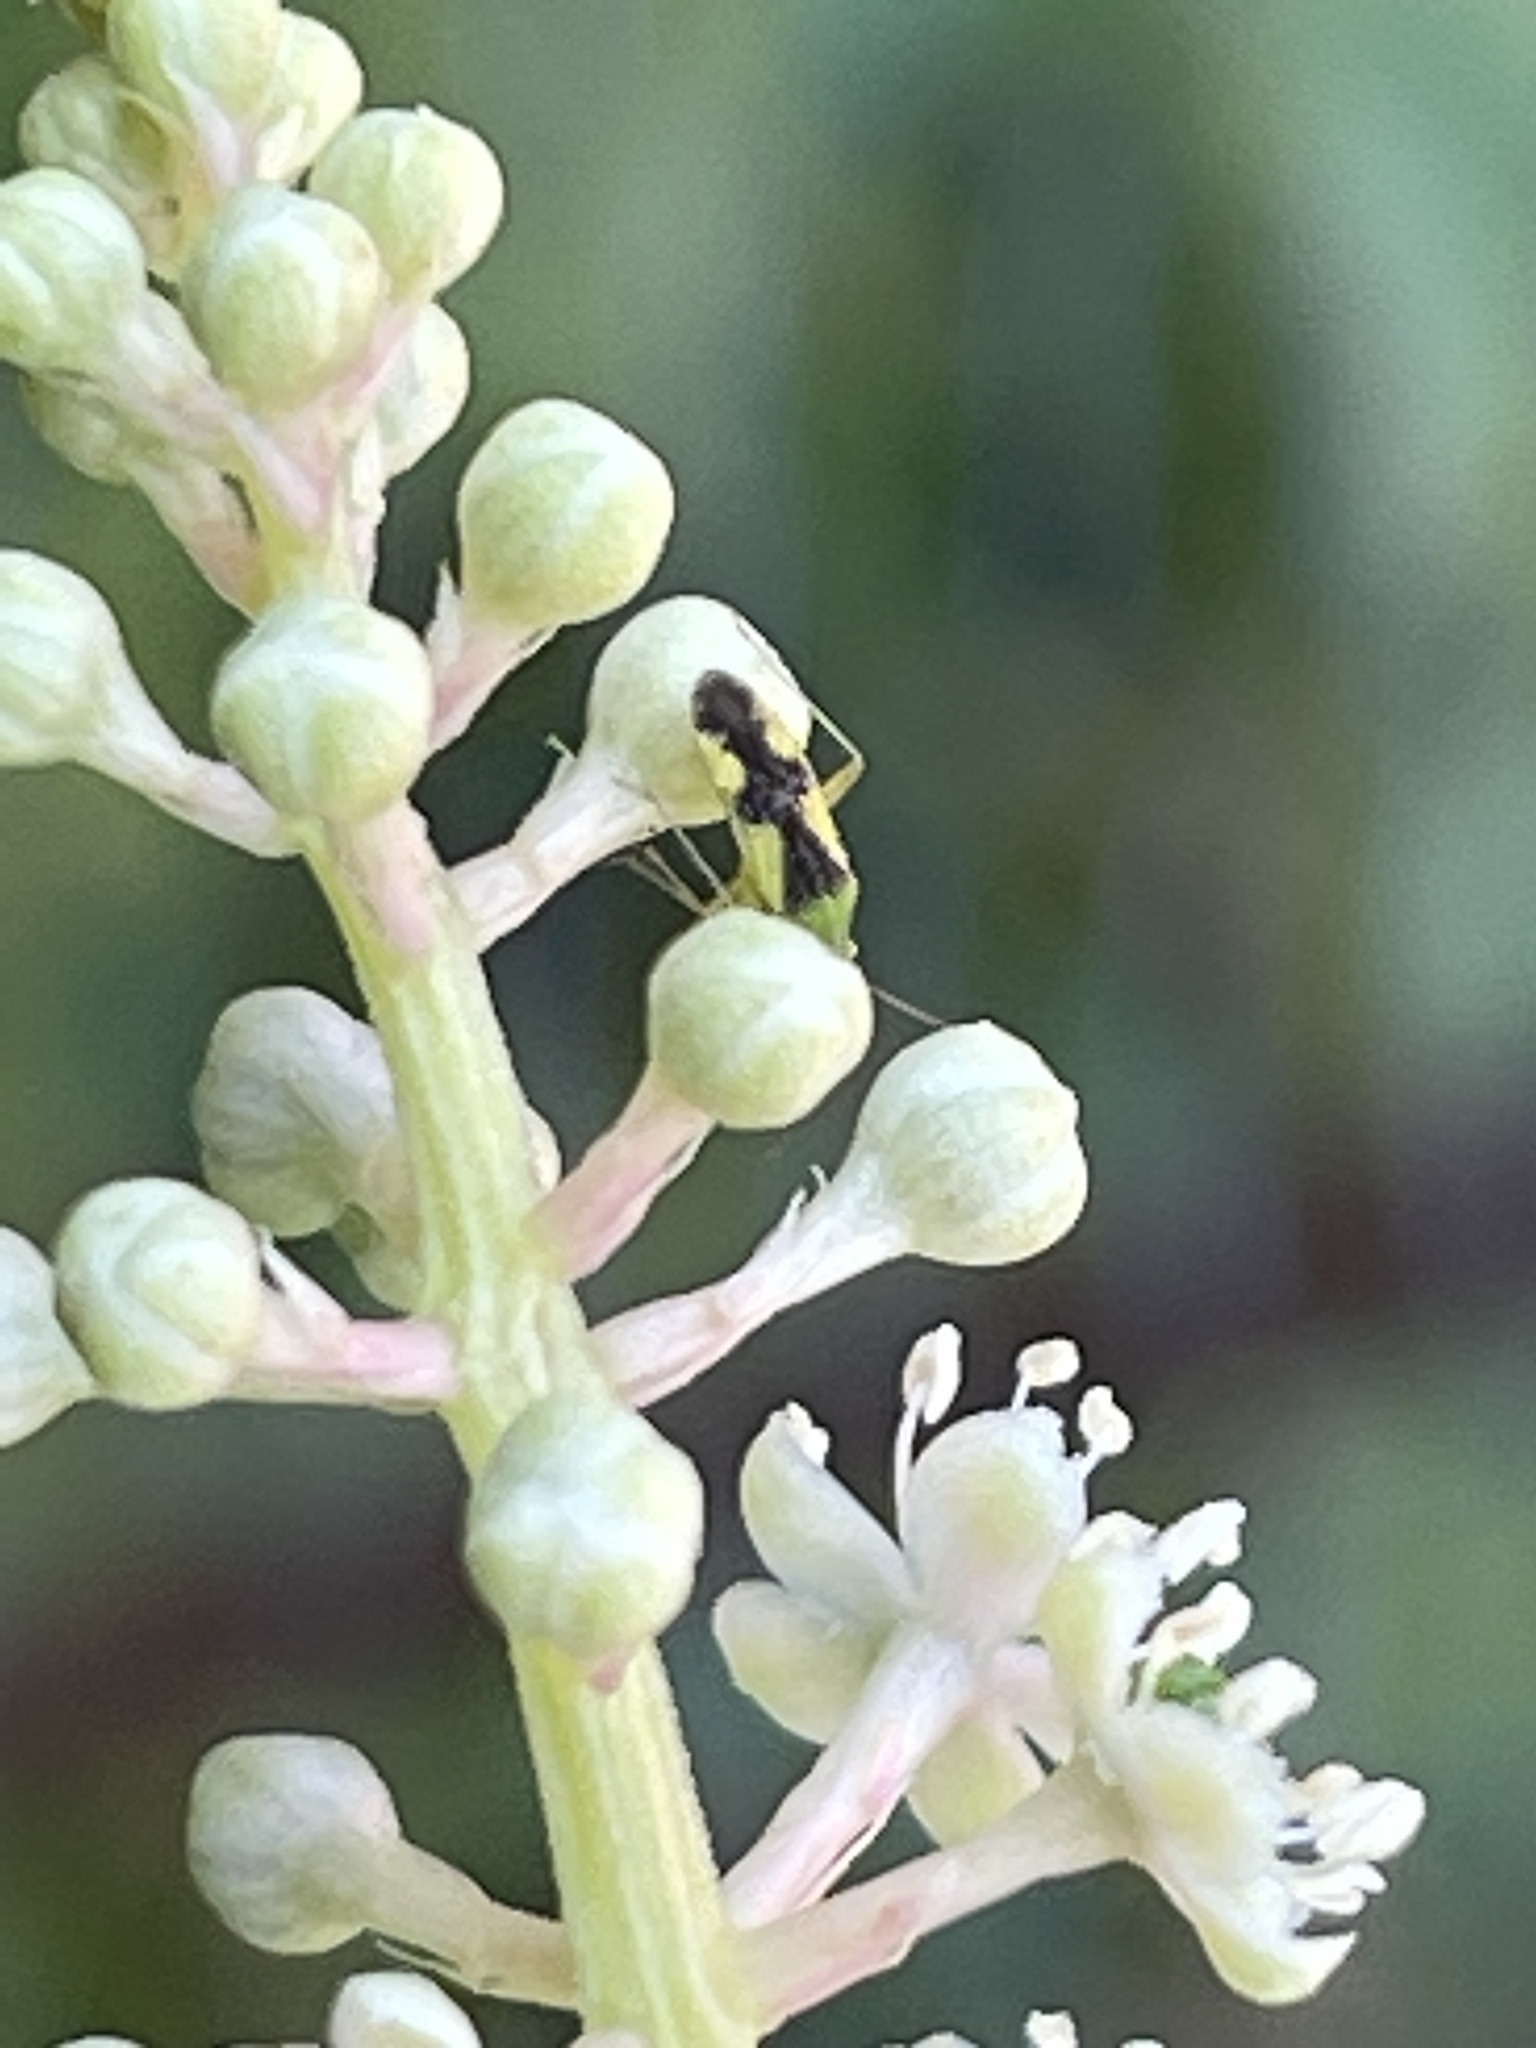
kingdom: Animalia
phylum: Arthropoda
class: Insecta
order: Hemiptera
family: Miridae
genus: Reuteroscopus
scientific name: Reuteroscopus ornatus
